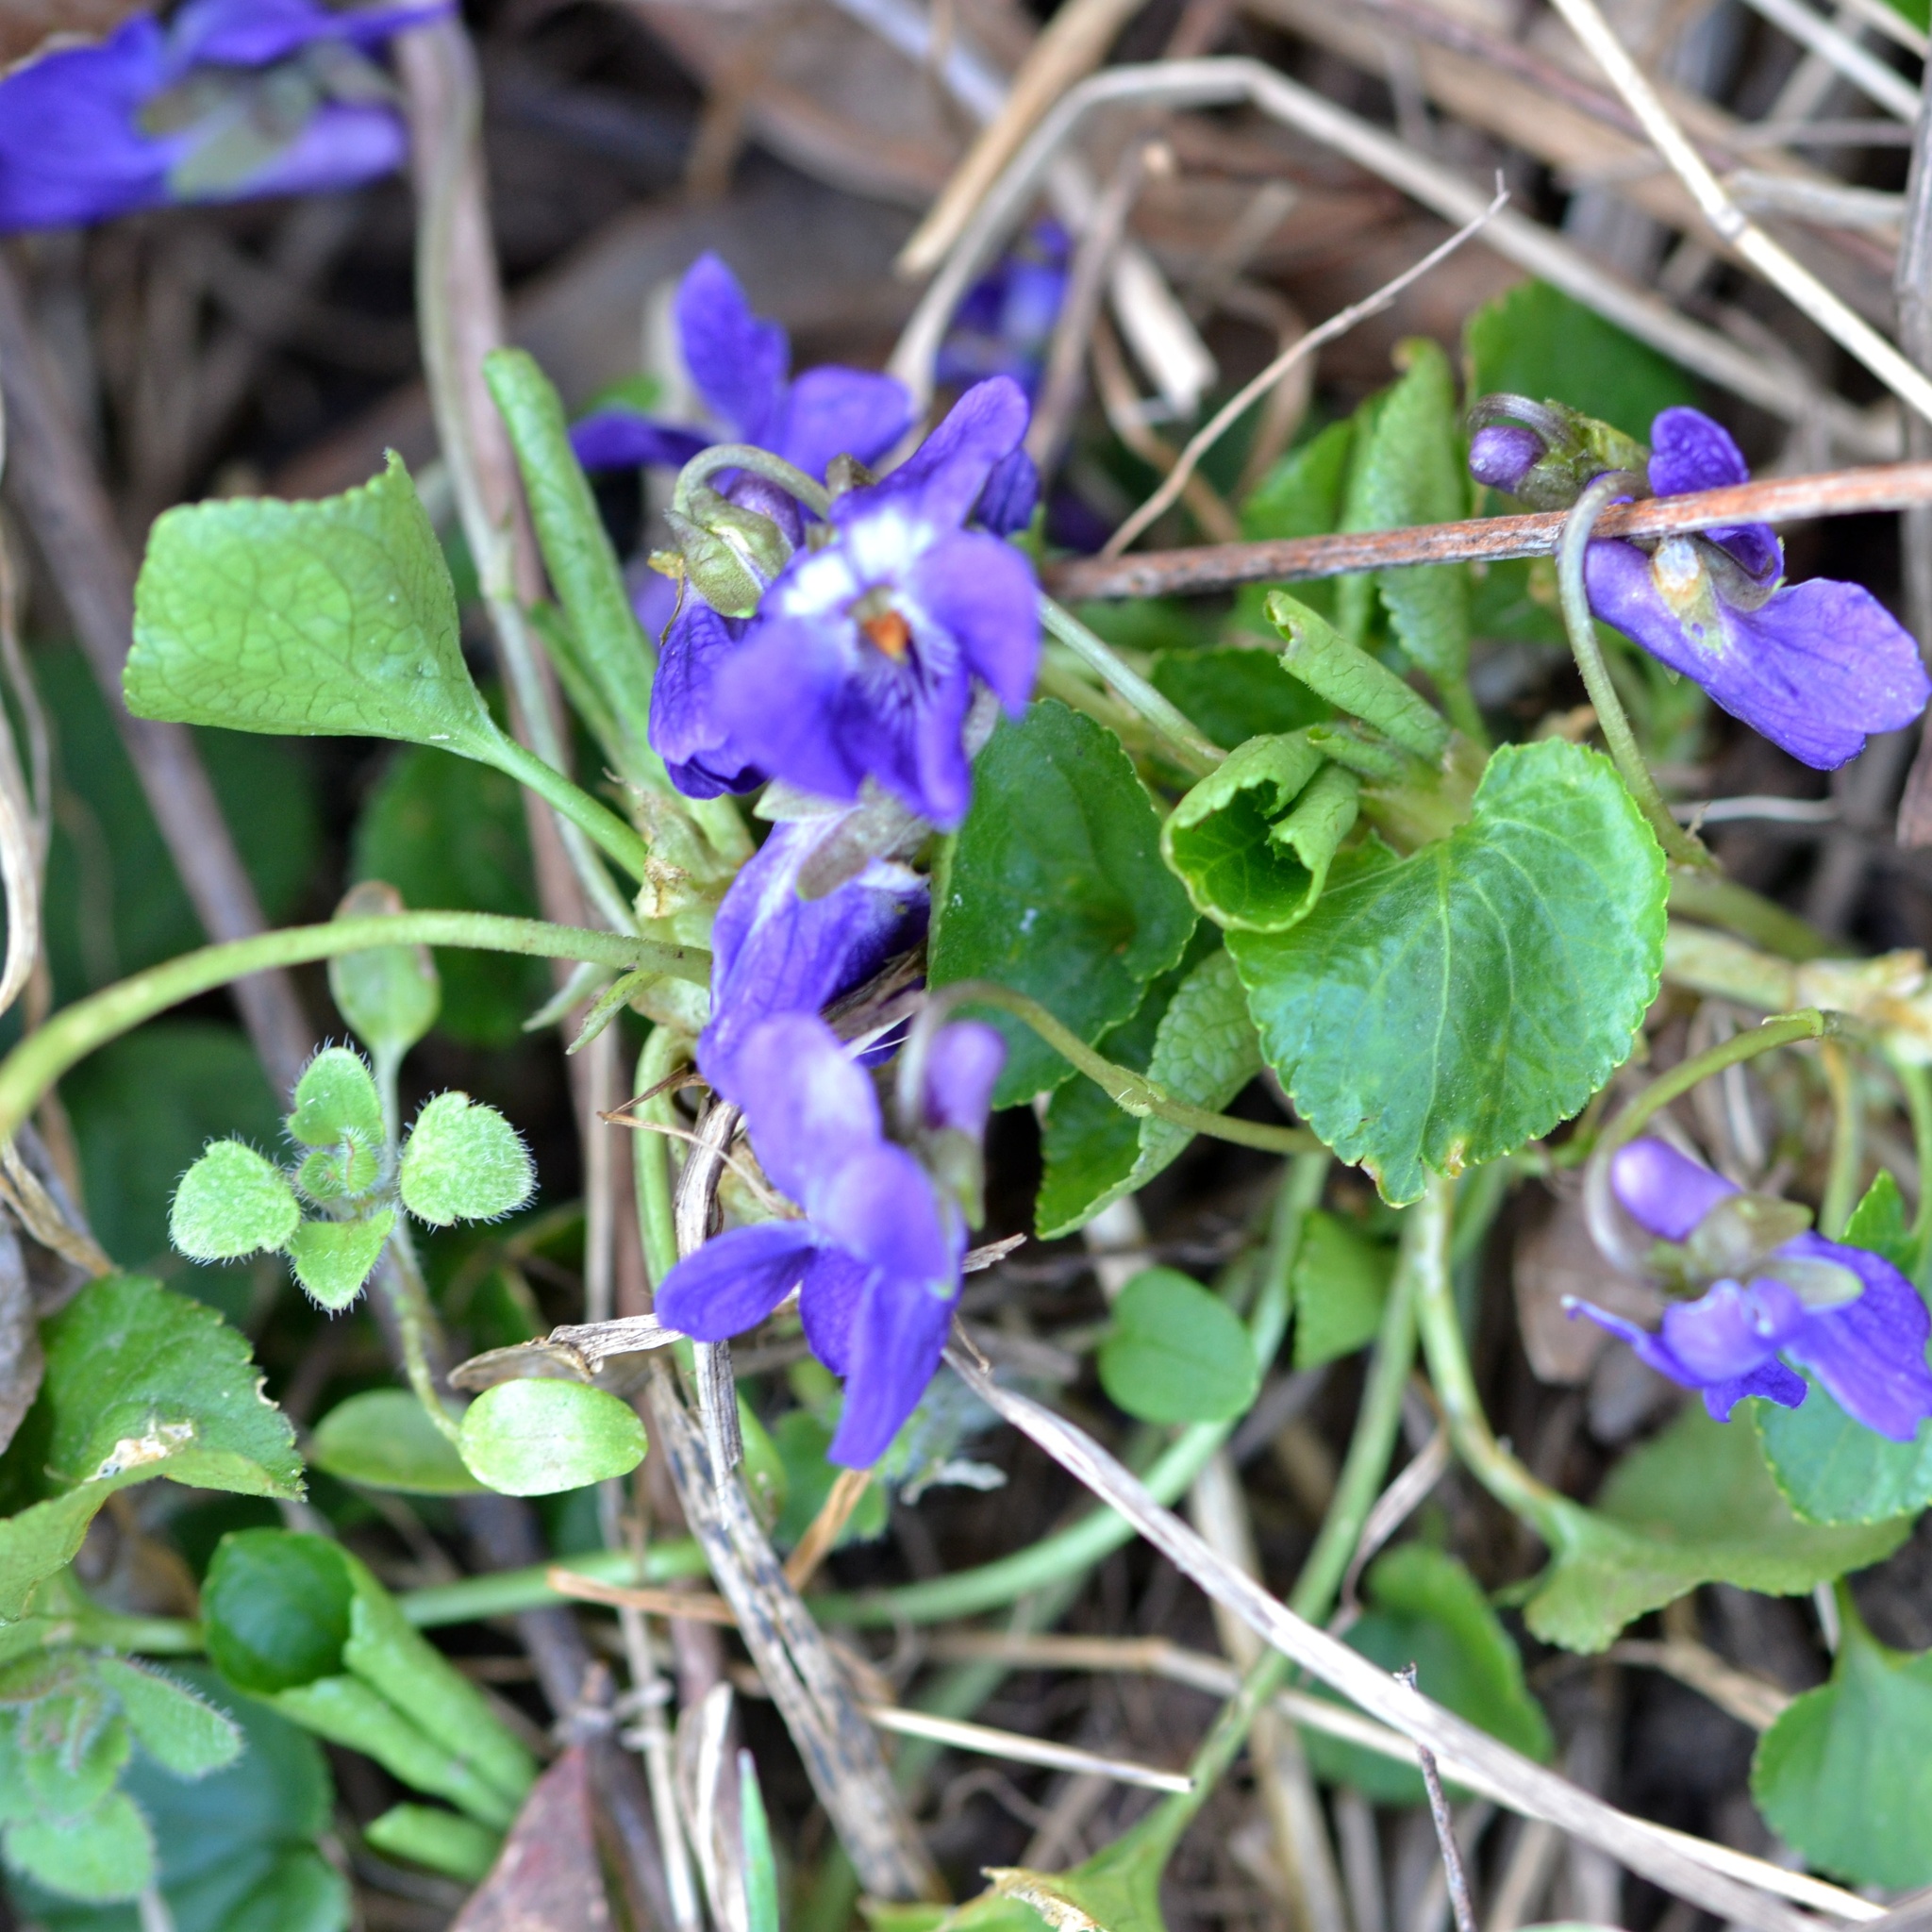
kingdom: Plantae
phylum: Tracheophyta
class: Magnoliopsida
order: Malpighiales
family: Violaceae
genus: Viola
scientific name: Viola odorata
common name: Sweet violet
